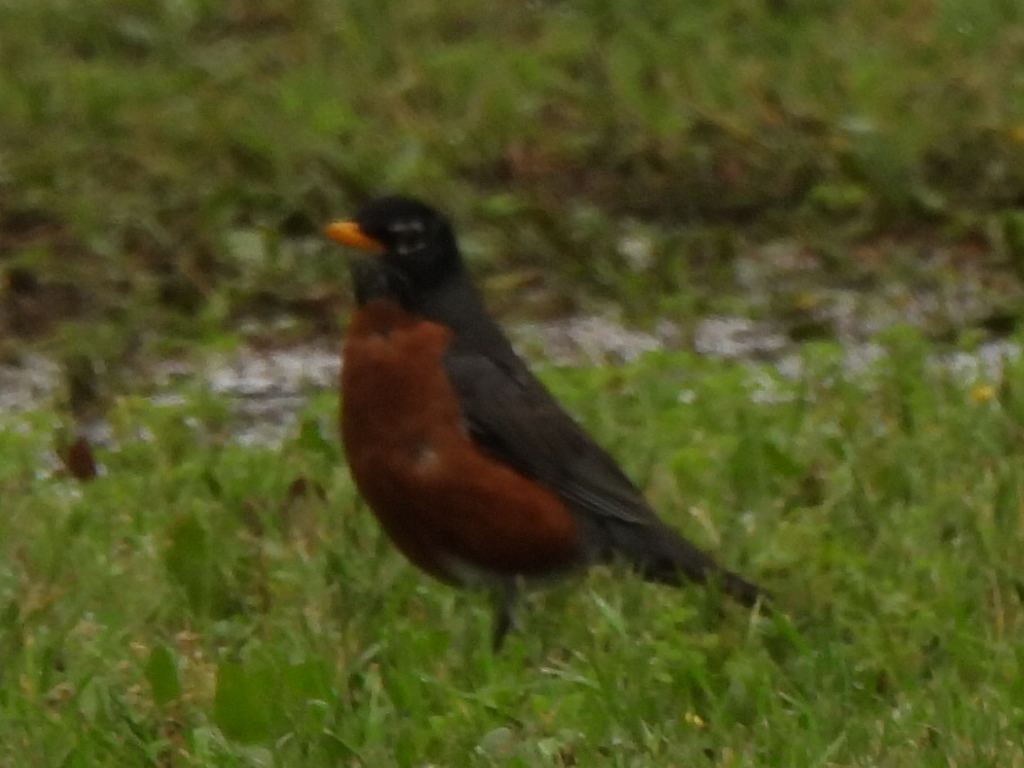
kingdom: Animalia
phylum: Chordata
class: Aves
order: Passeriformes
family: Turdidae
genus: Turdus
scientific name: Turdus migratorius
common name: American robin
